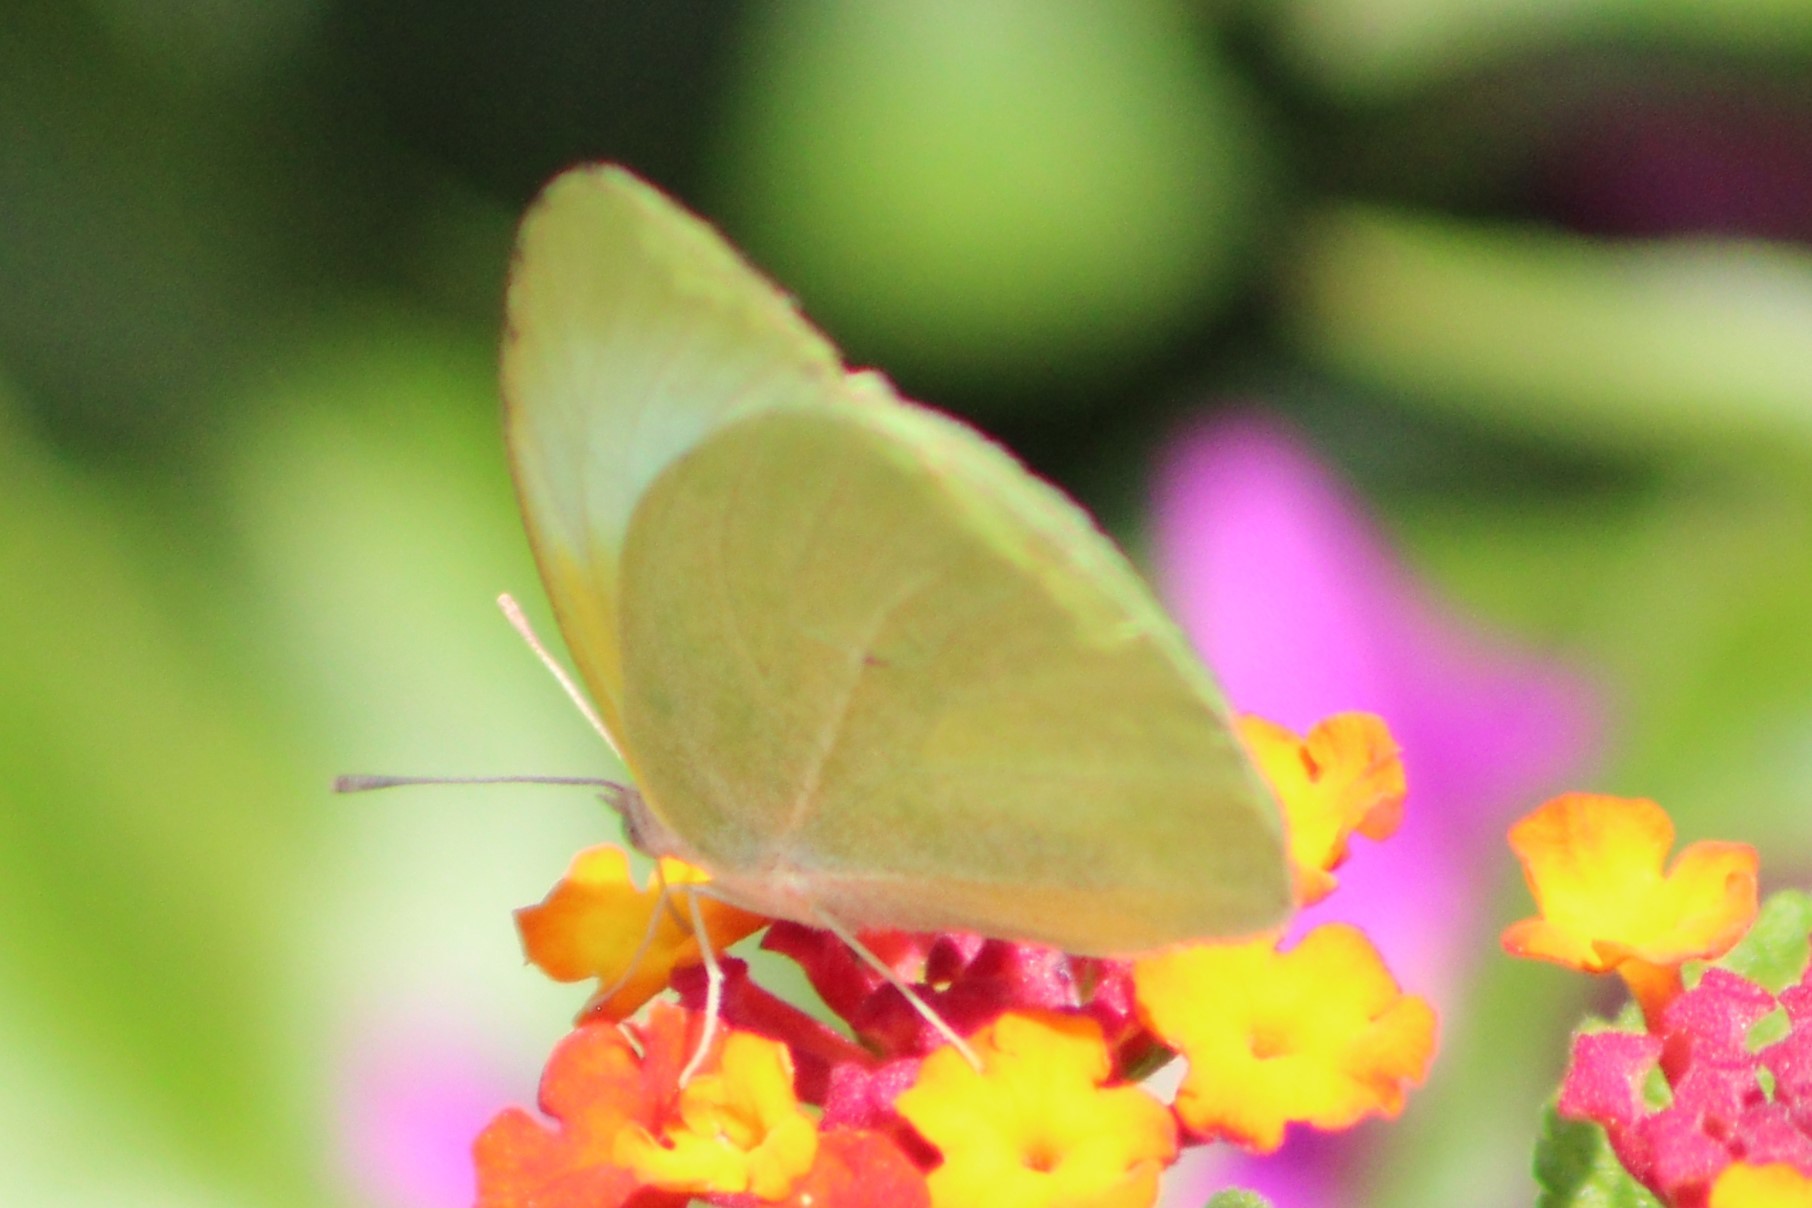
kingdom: Animalia
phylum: Arthropoda
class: Insecta
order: Lepidoptera
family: Pieridae
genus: Kricogonia
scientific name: Kricogonia lyside
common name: Guayacan sulphur,
